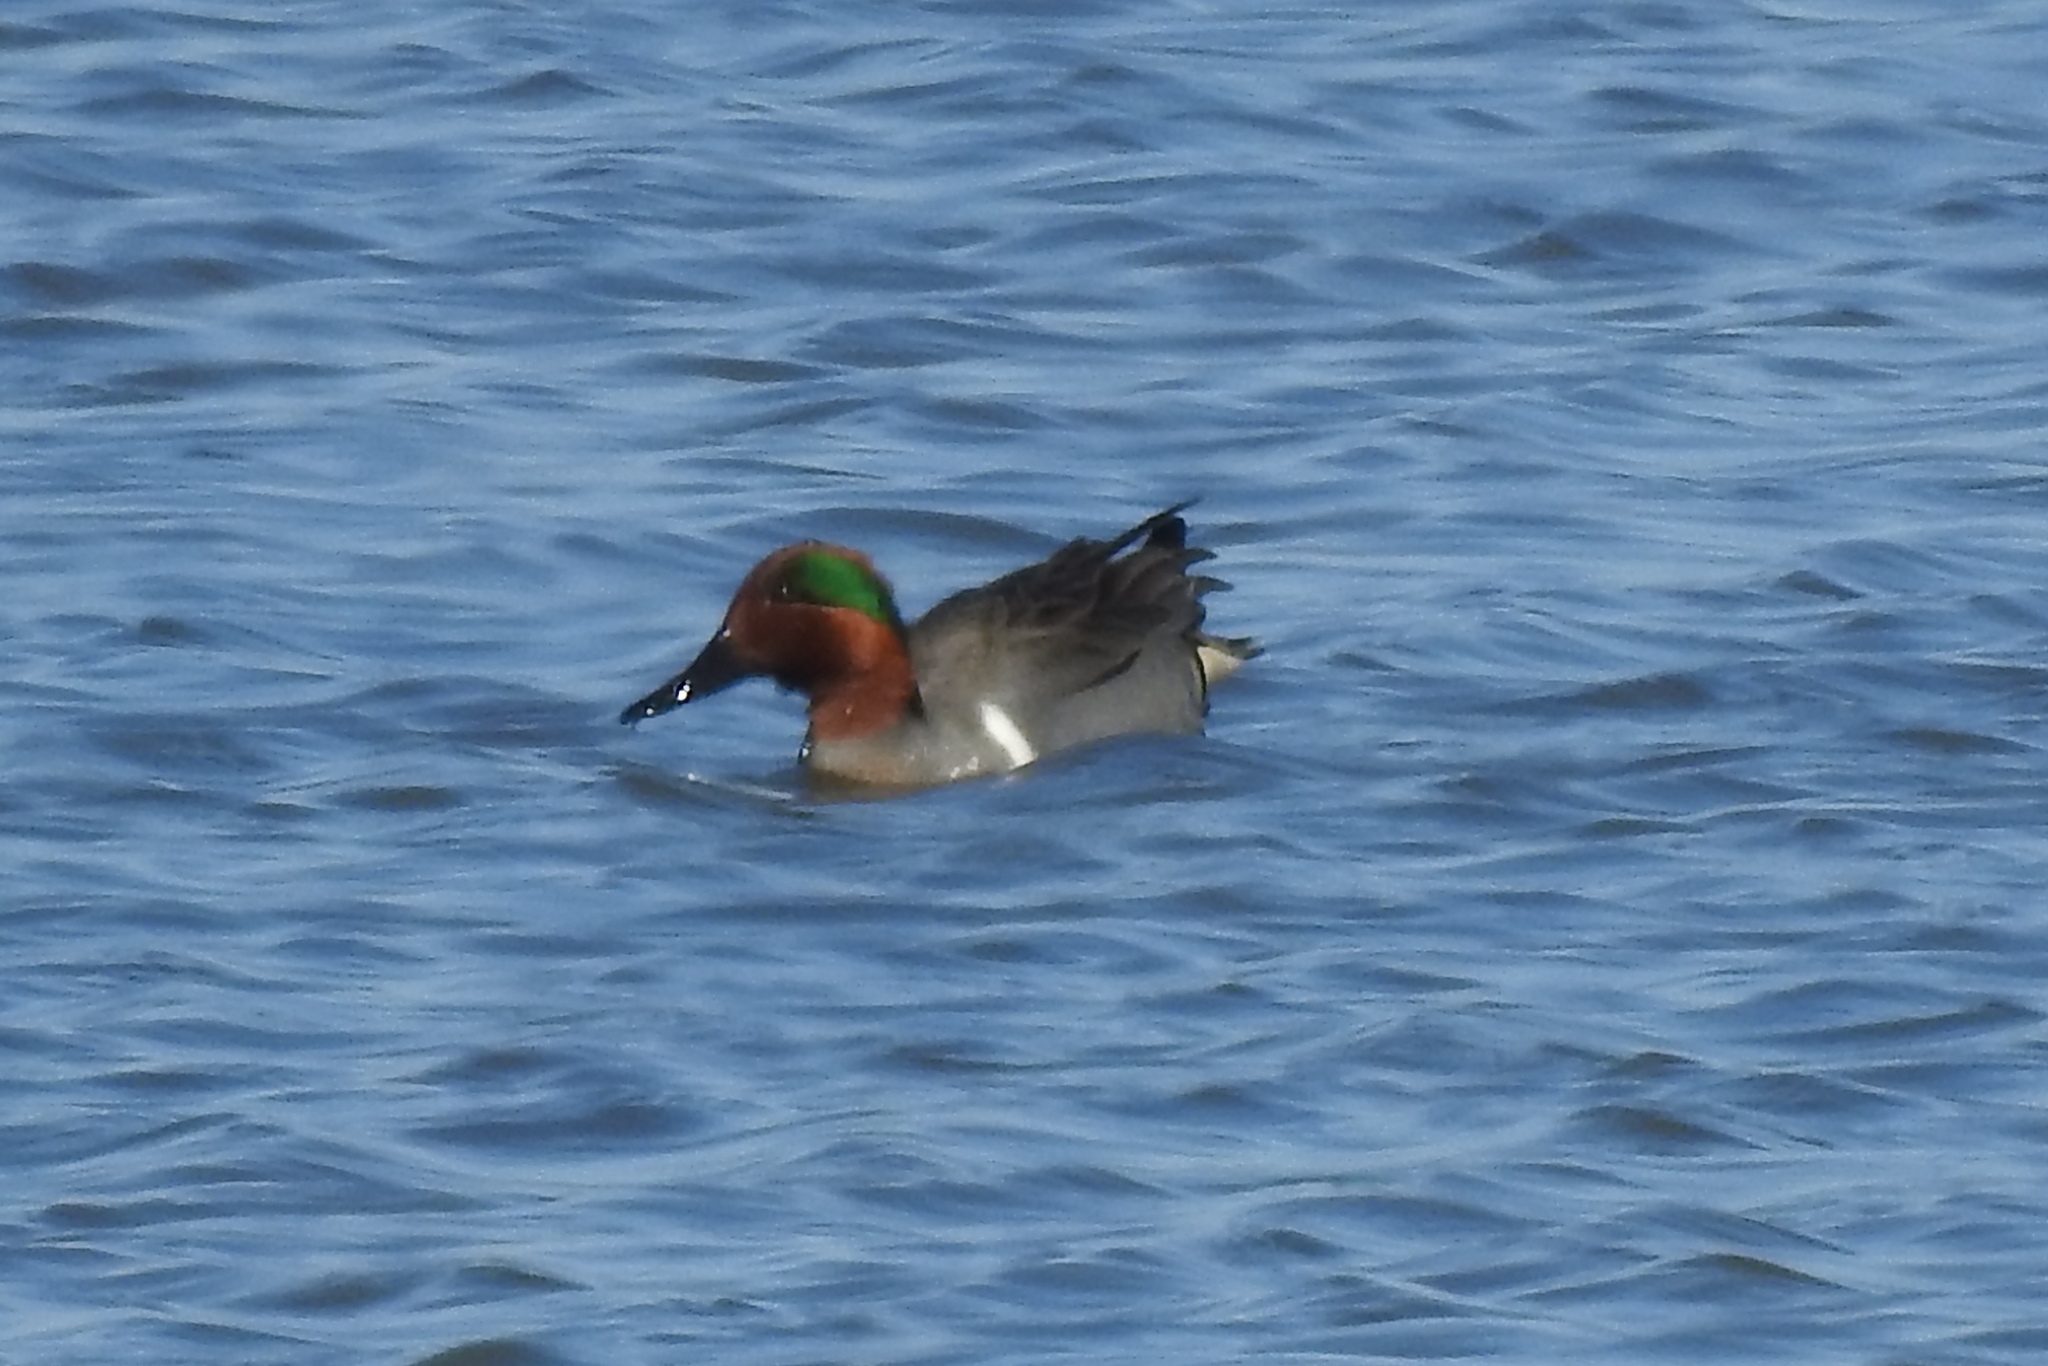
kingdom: Animalia
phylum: Chordata
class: Aves
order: Anseriformes
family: Anatidae
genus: Anas
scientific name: Anas crecca
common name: Eurasian teal
